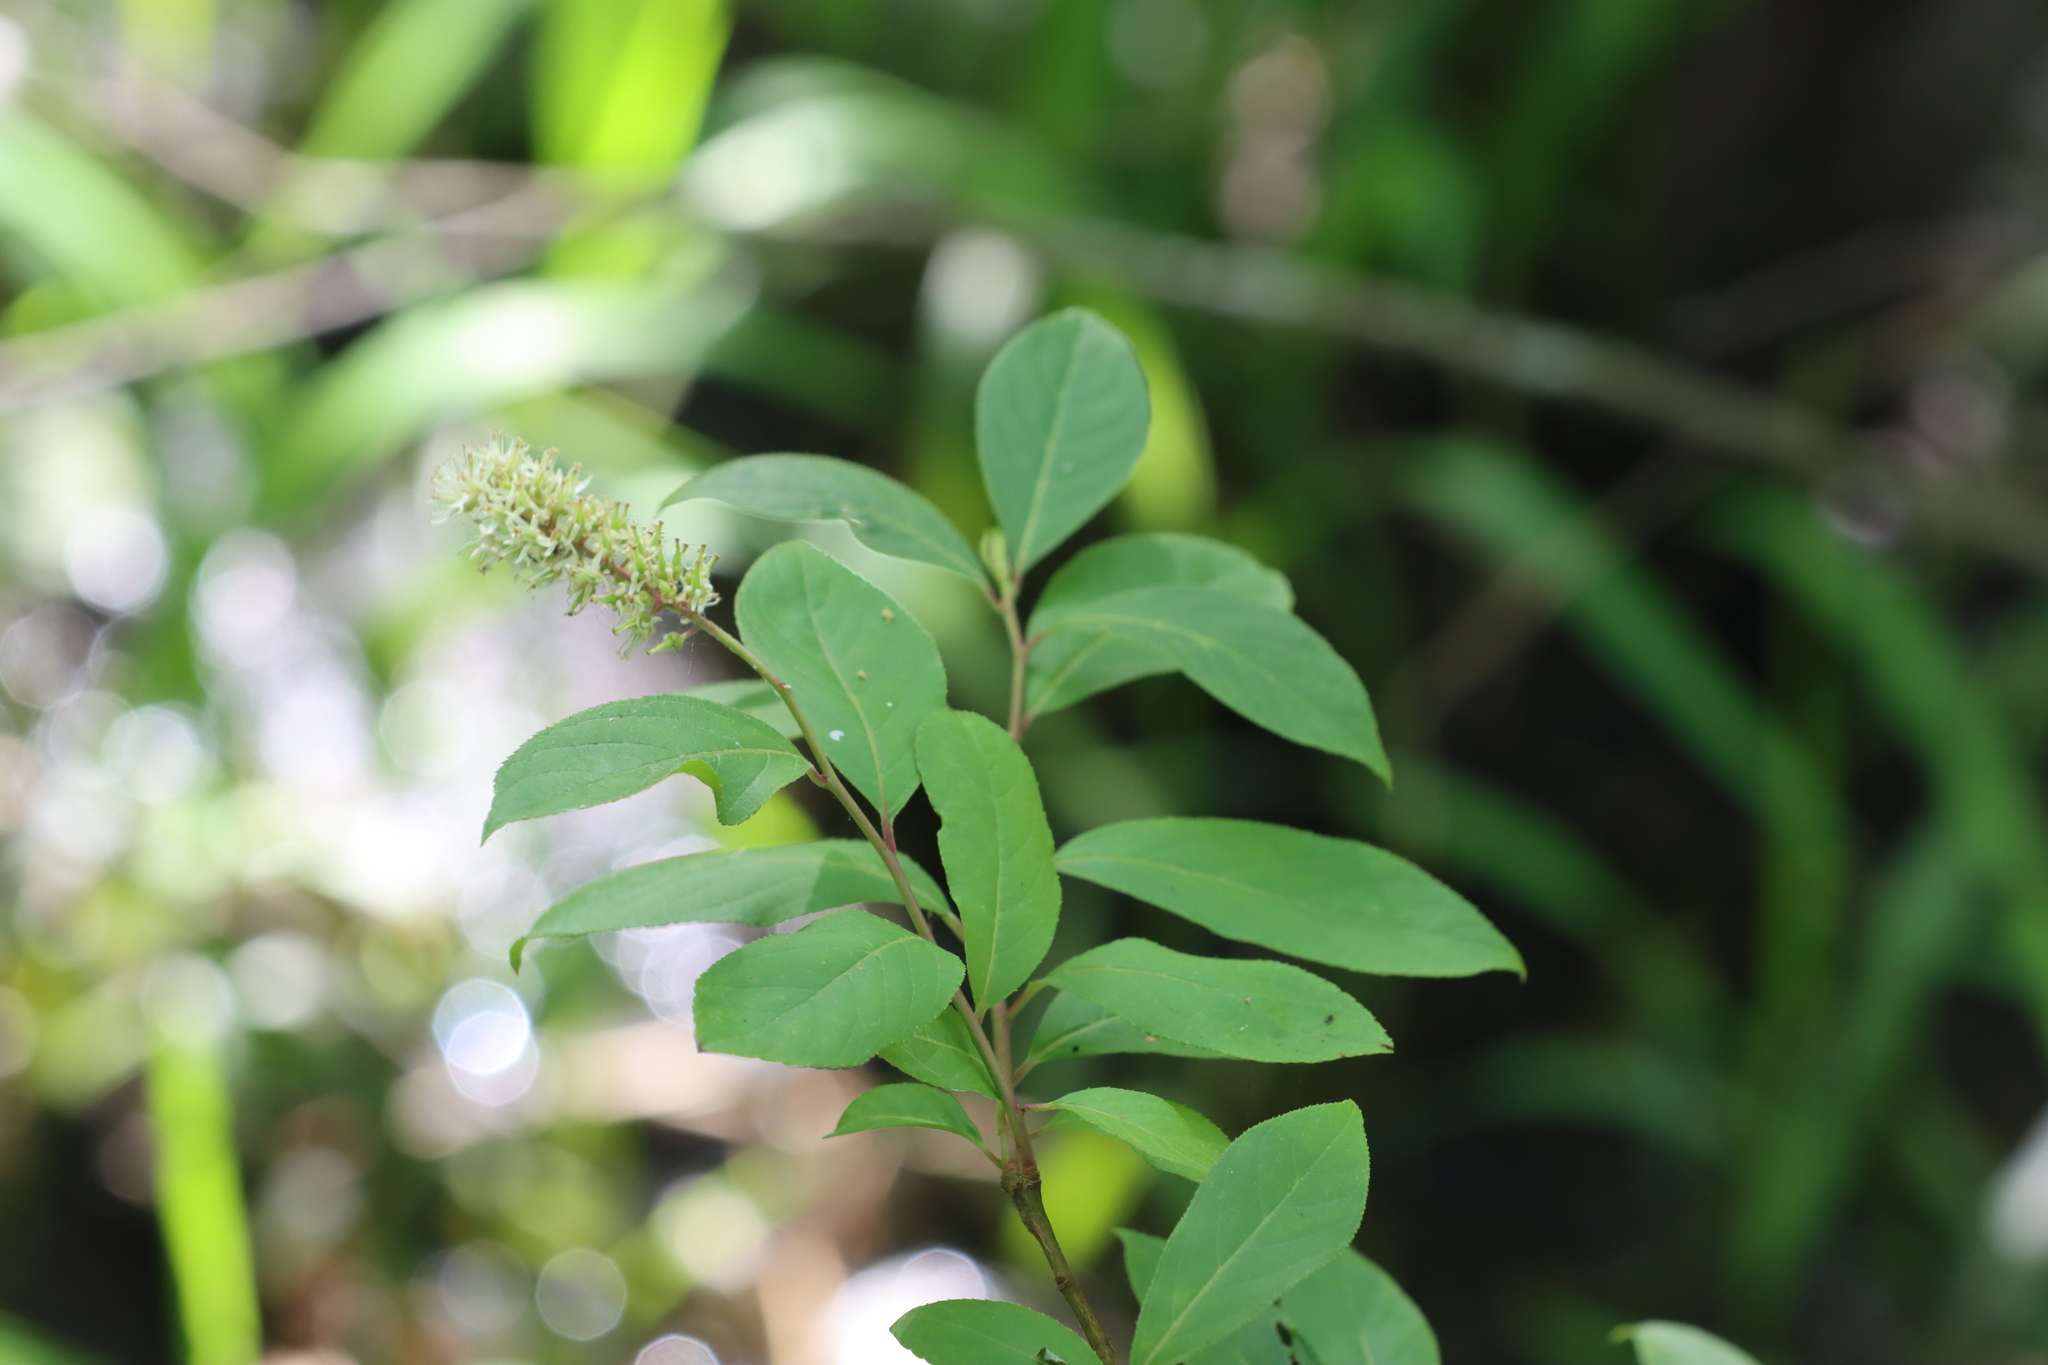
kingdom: Plantae
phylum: Tracheophyta
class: Magnoliopsida
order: Saxifragales
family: Iteaceae
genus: Itea
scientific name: Itea virginica
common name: Sweetspire
